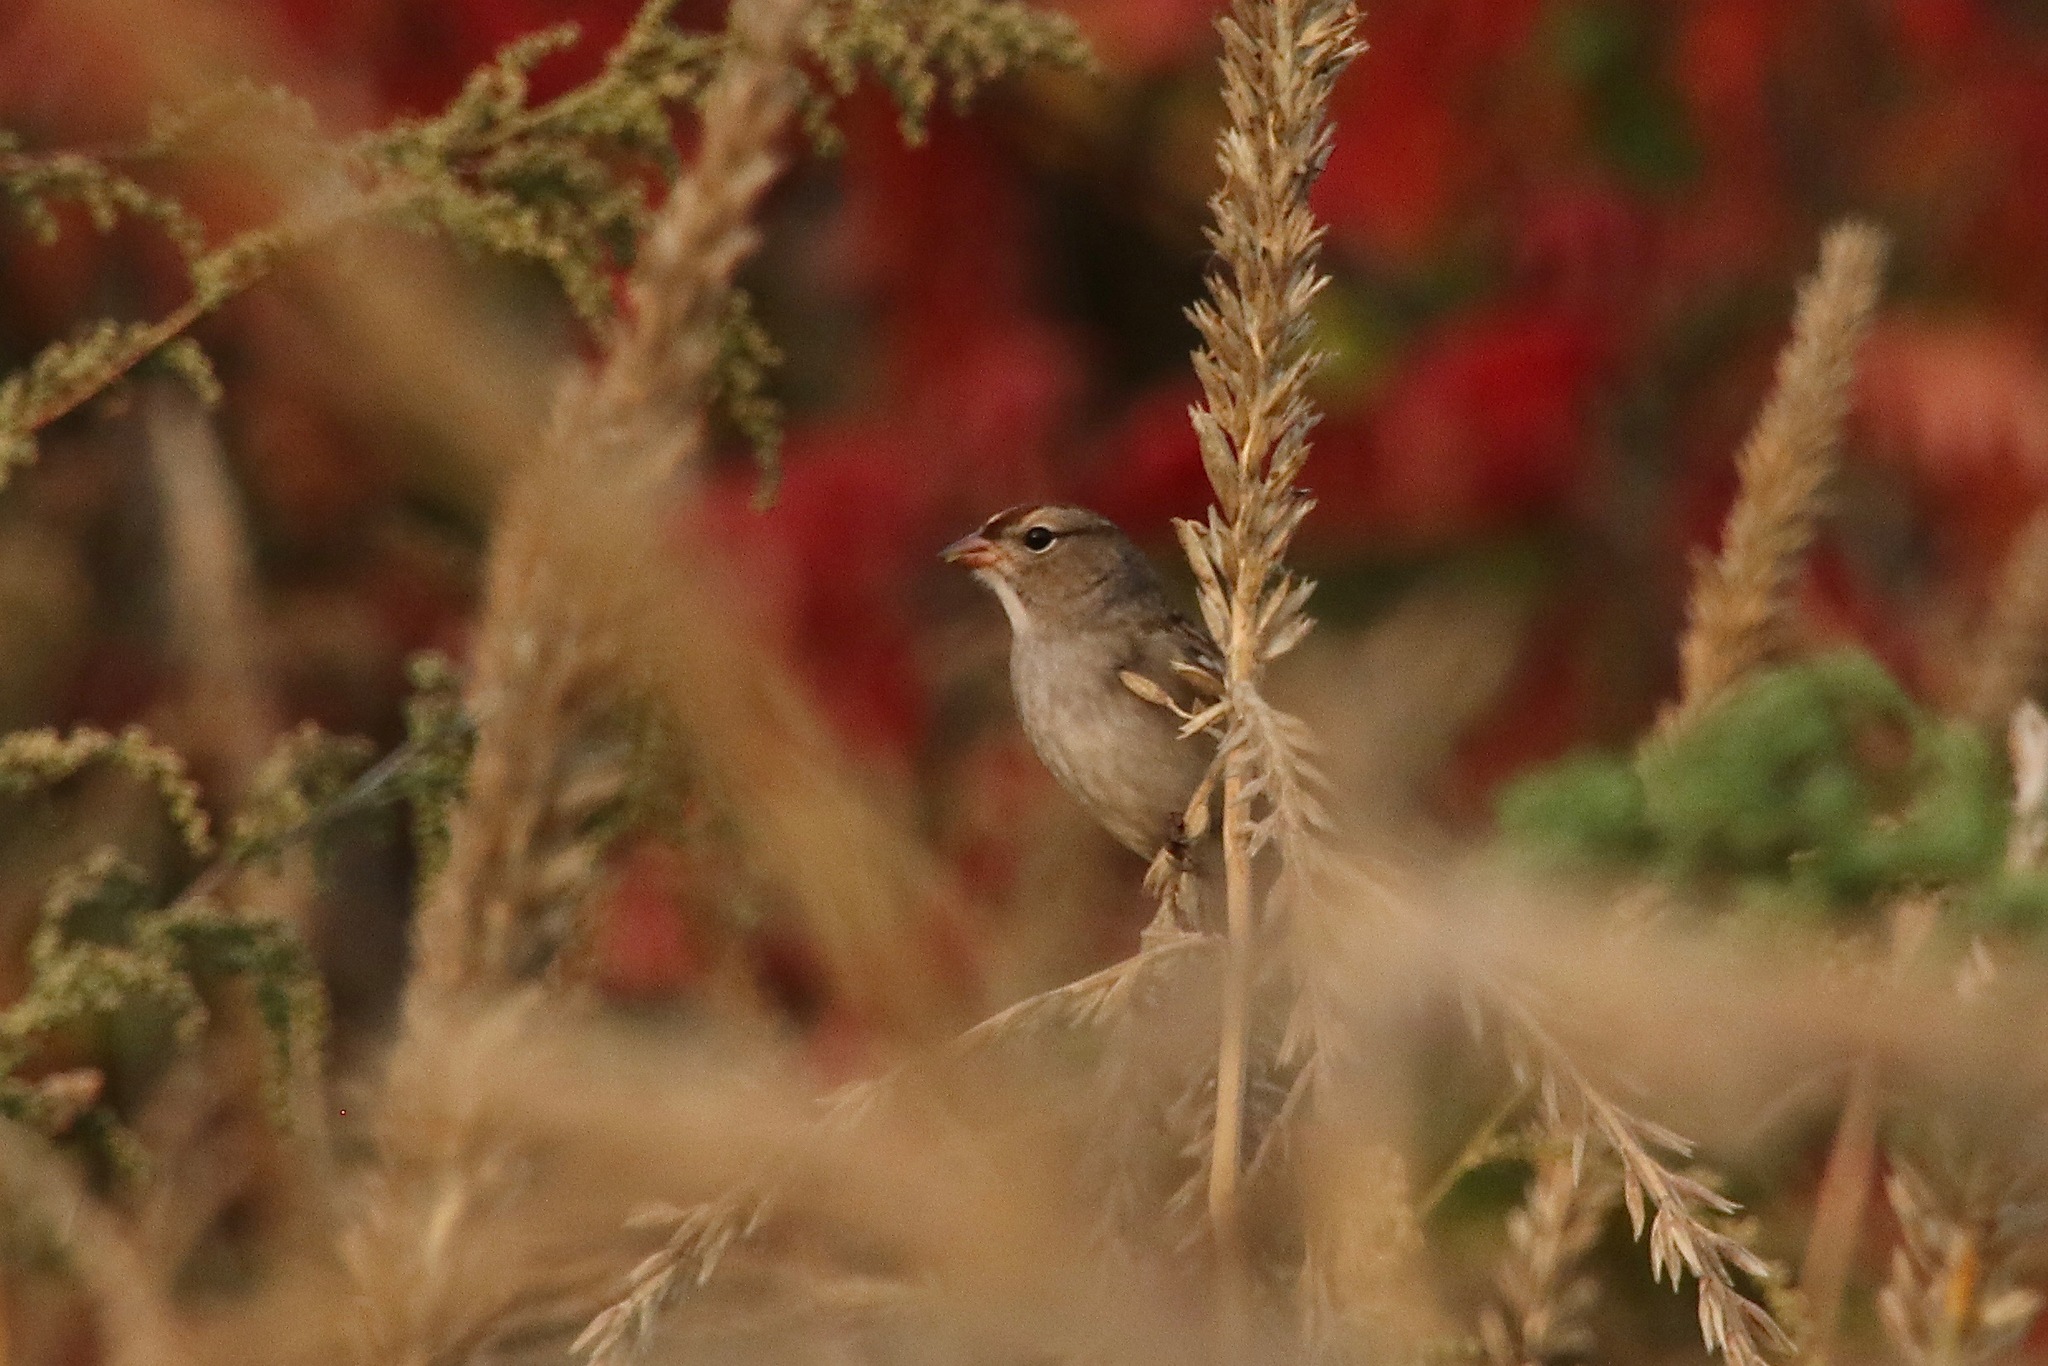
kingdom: Animalia
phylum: Chordata
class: Aves
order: Passeriformes
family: Passerellidae
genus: Zonotrichia
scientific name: Zonotrichia leucophrys
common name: White-crowned sparrow
